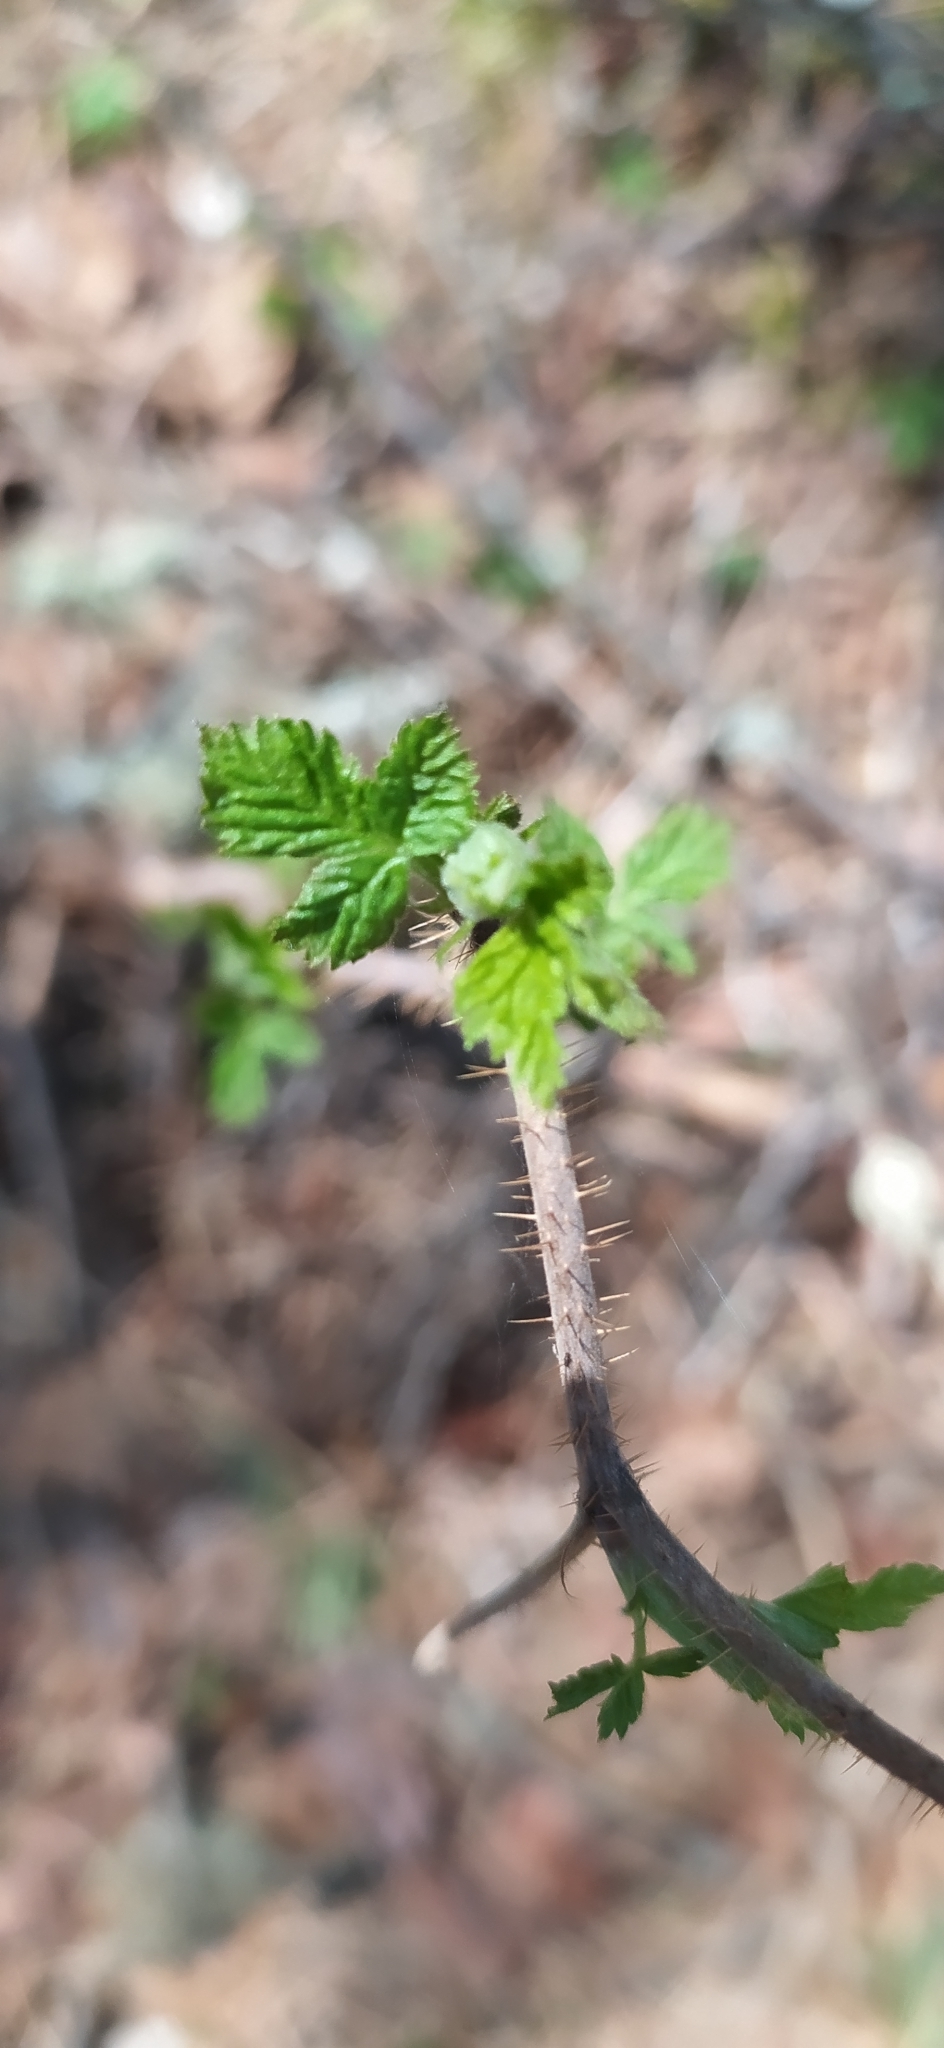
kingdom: Plantae
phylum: Tracheophyta
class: Magnoliopsida
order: Rosales
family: Rosaceae
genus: Rubus
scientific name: Rubus idaeus
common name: Raspberry
